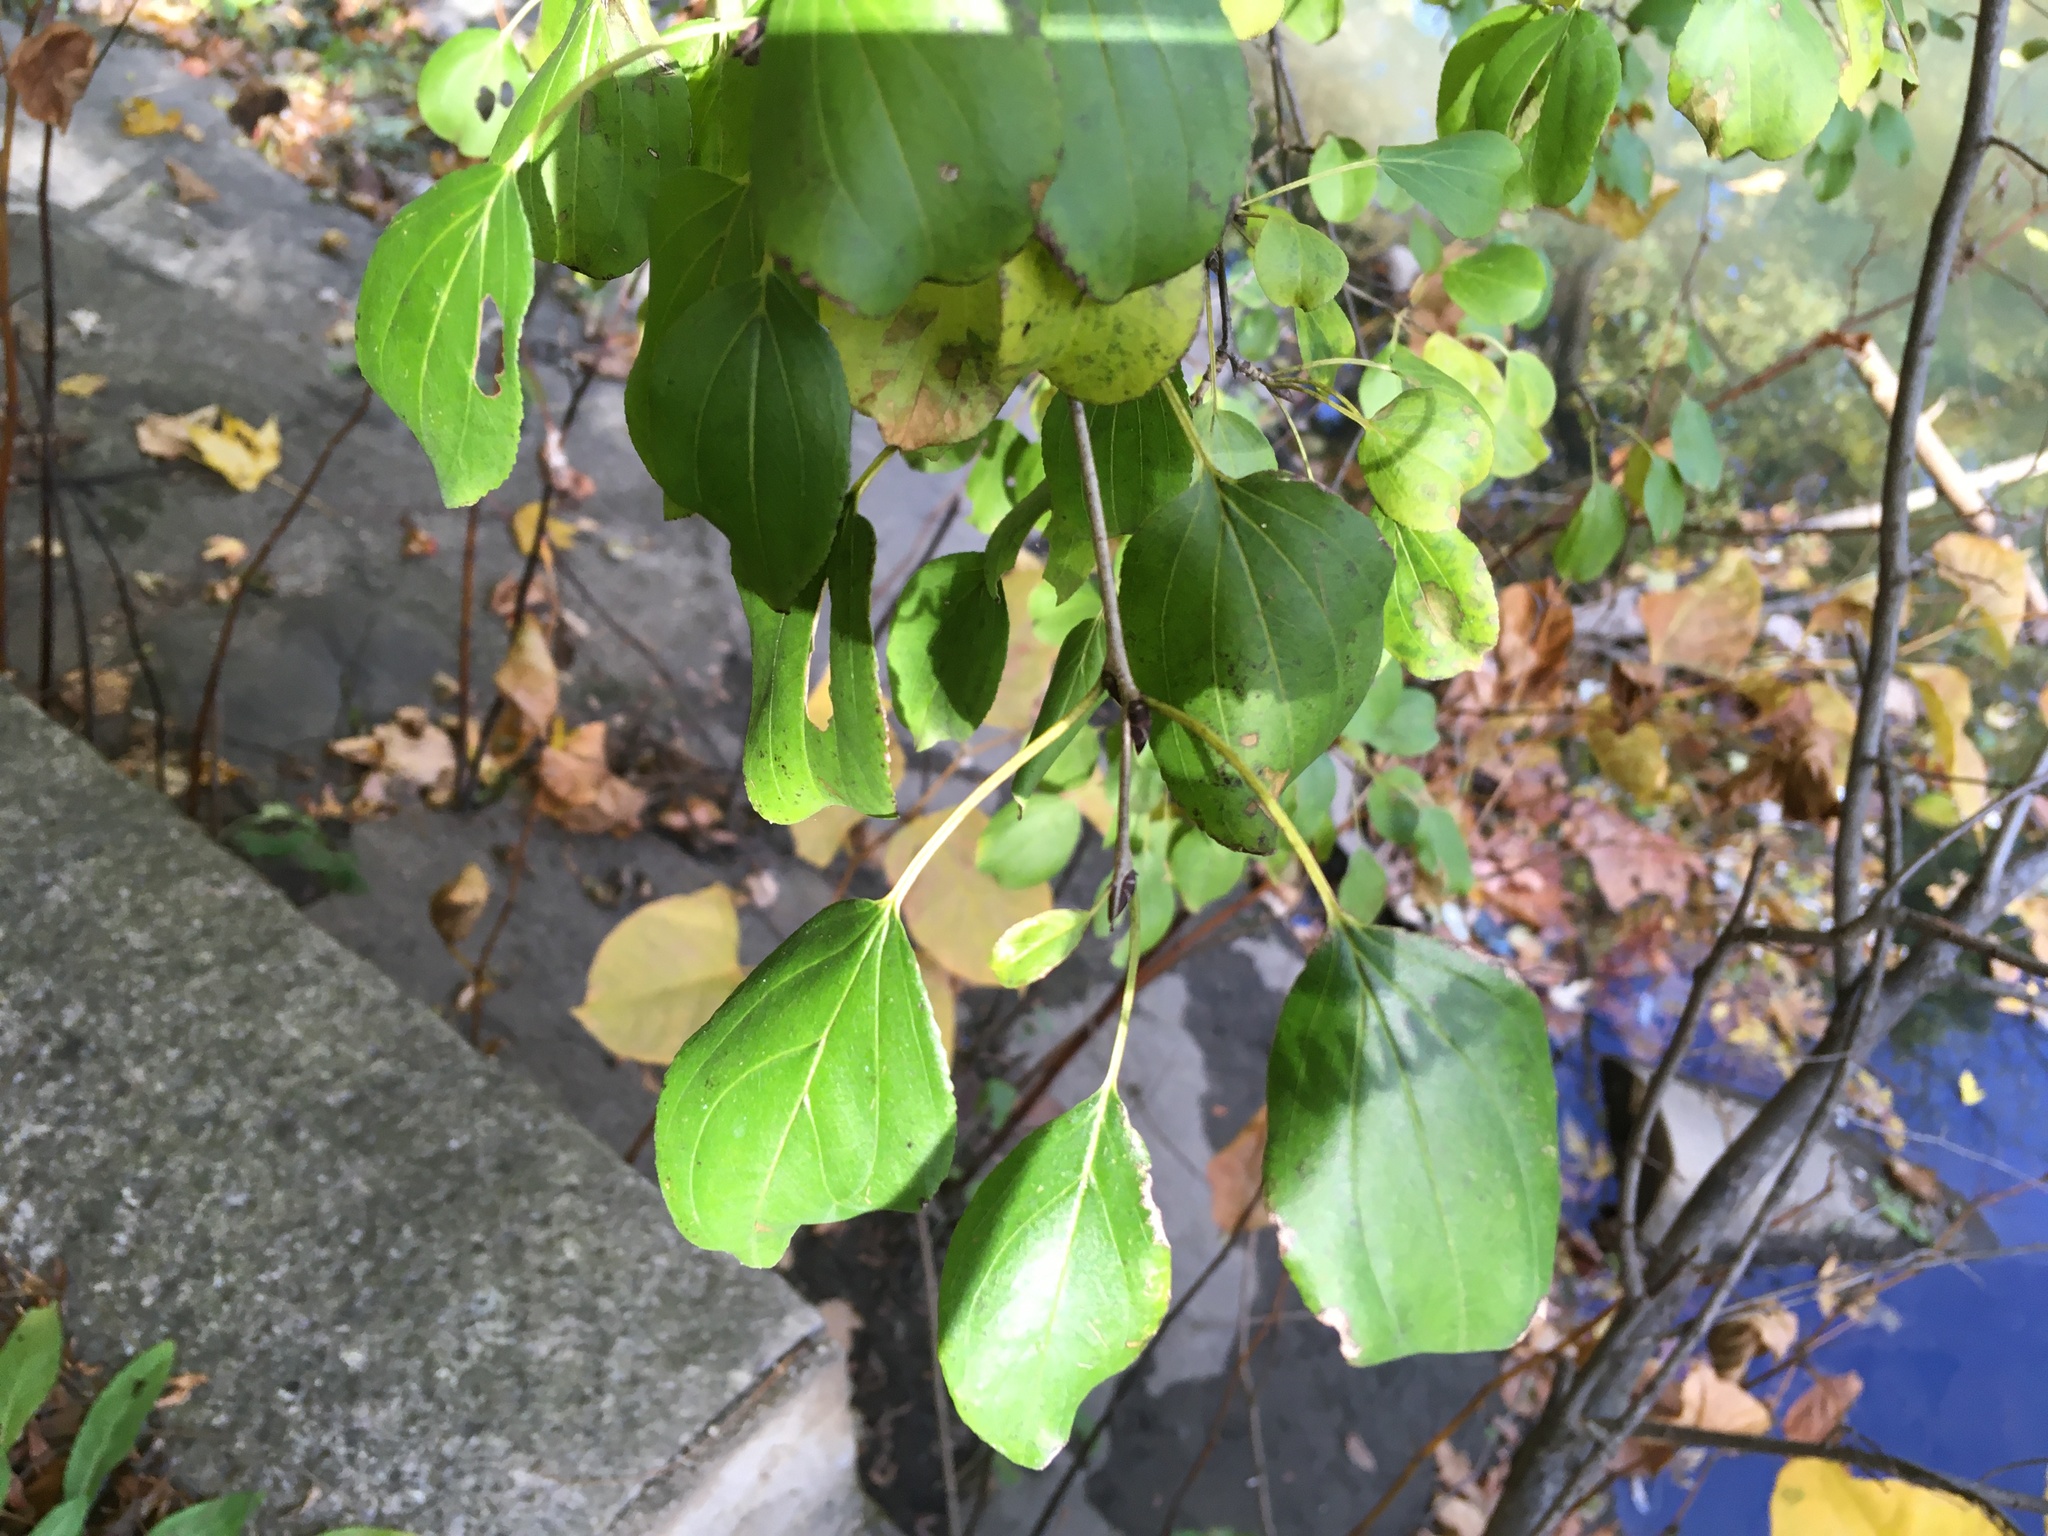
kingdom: Plantae
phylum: Tracheophyta
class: Magnoliopsida
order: Rosales
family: Rhamnaceae
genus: Rhamnus
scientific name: Rhamnus cathartica
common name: Common buckthorn
